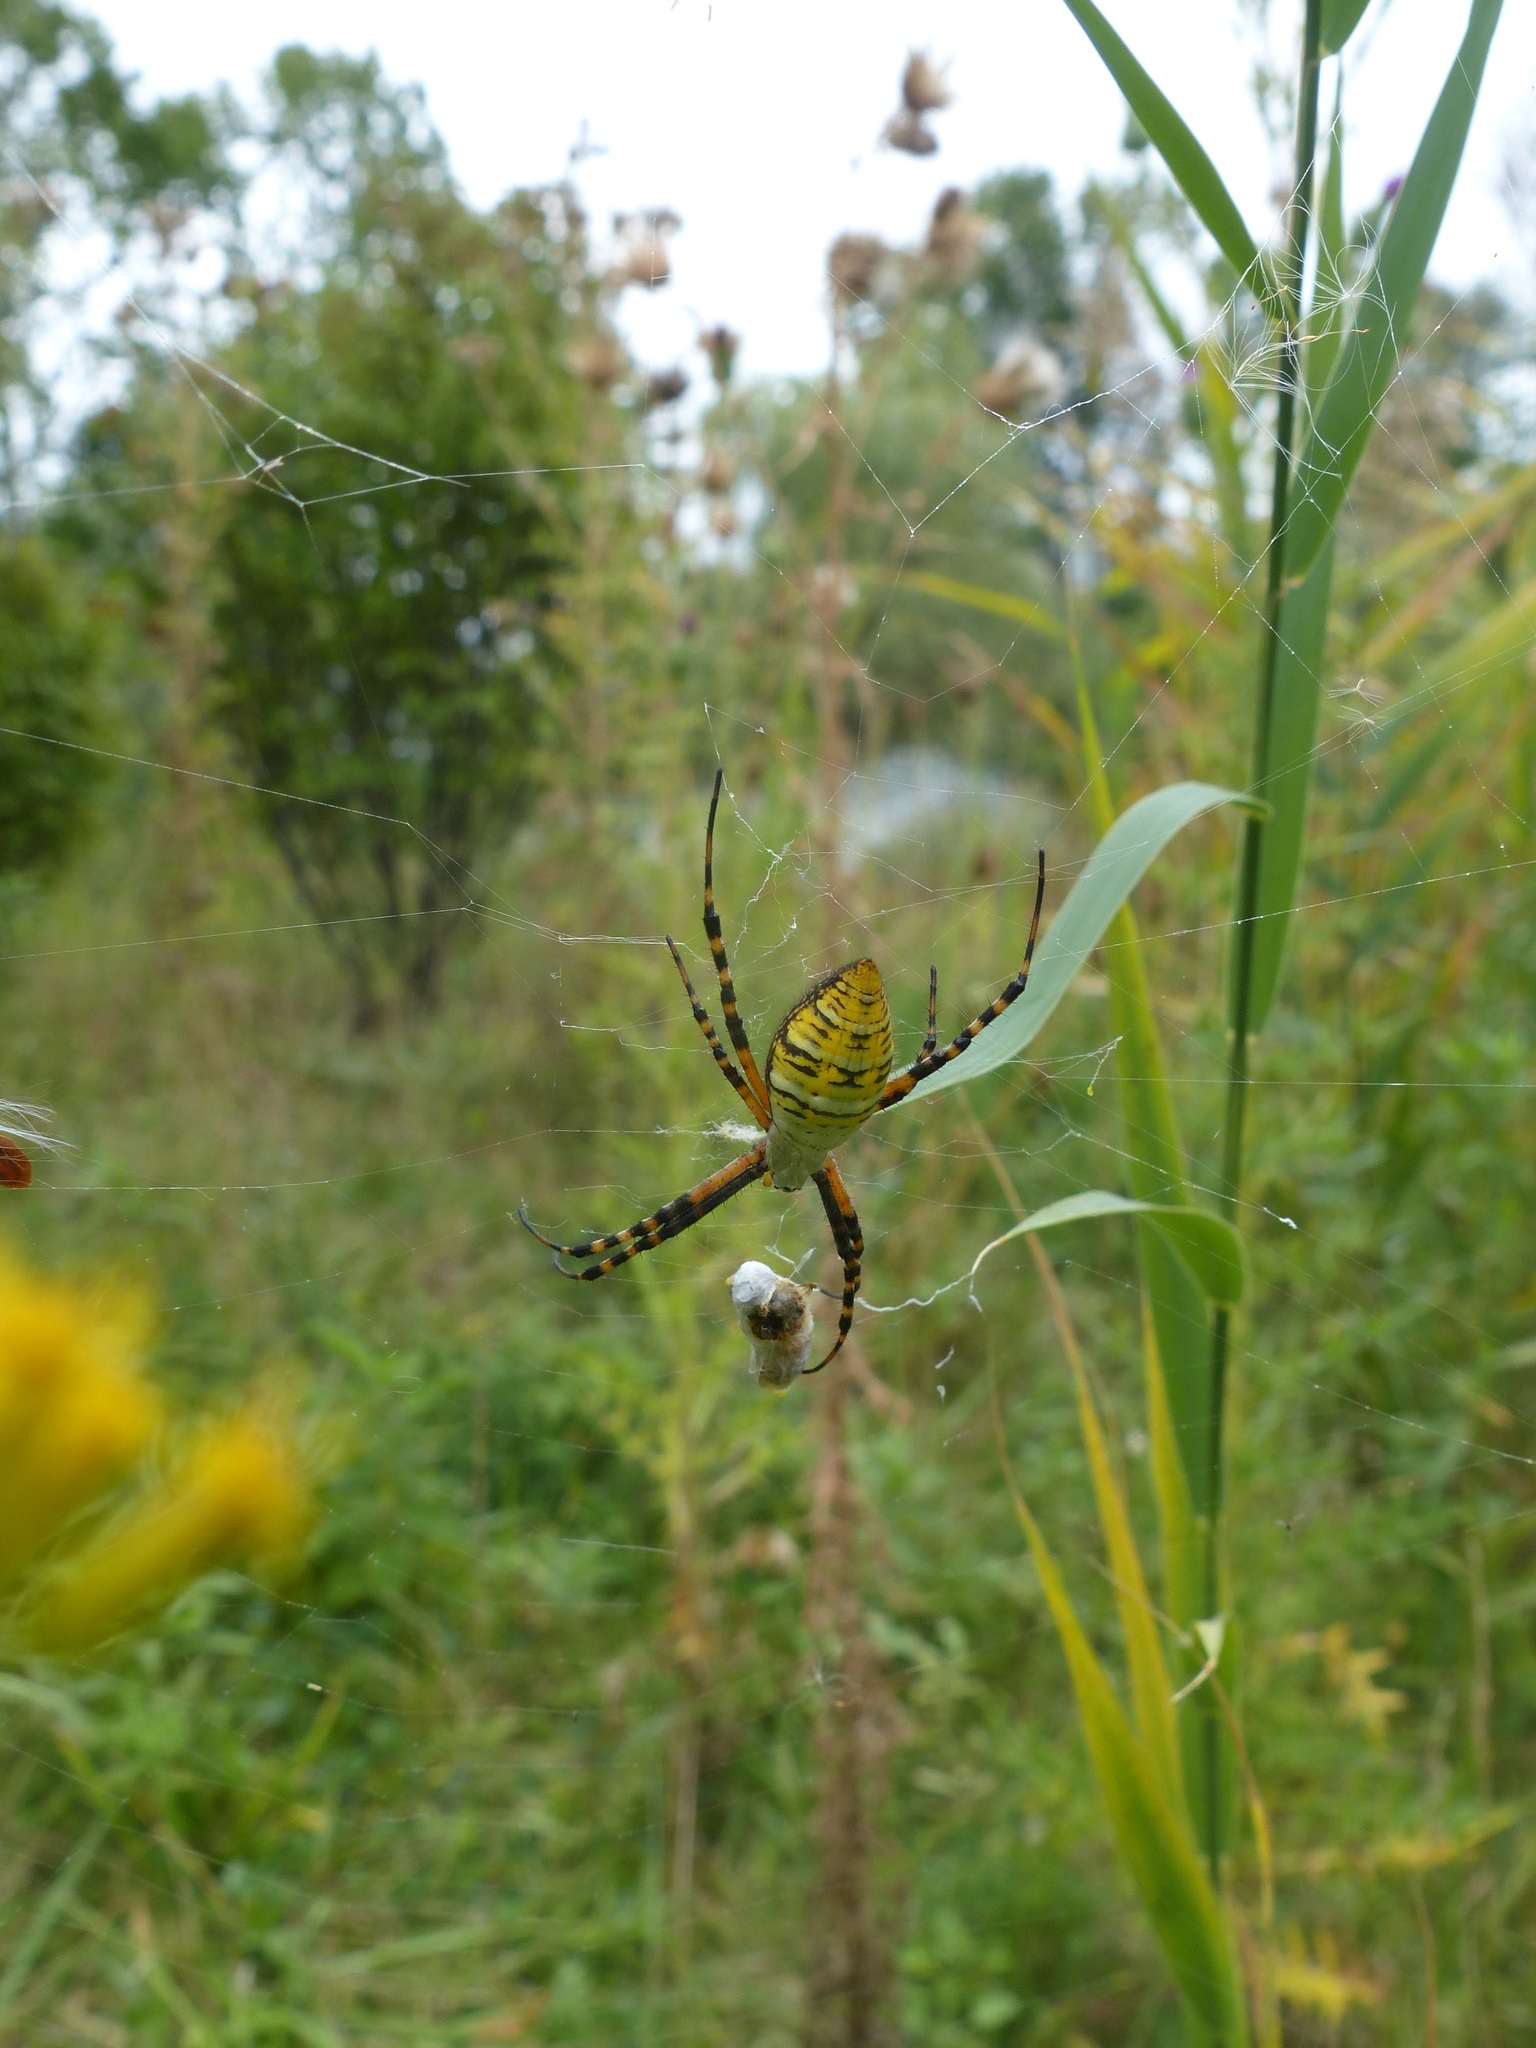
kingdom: Animalia
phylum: Arthropoda
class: Arachnida
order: Araneae
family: Araneidae
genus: Argiope
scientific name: Argiope trifasciata
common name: Banded garden spider
